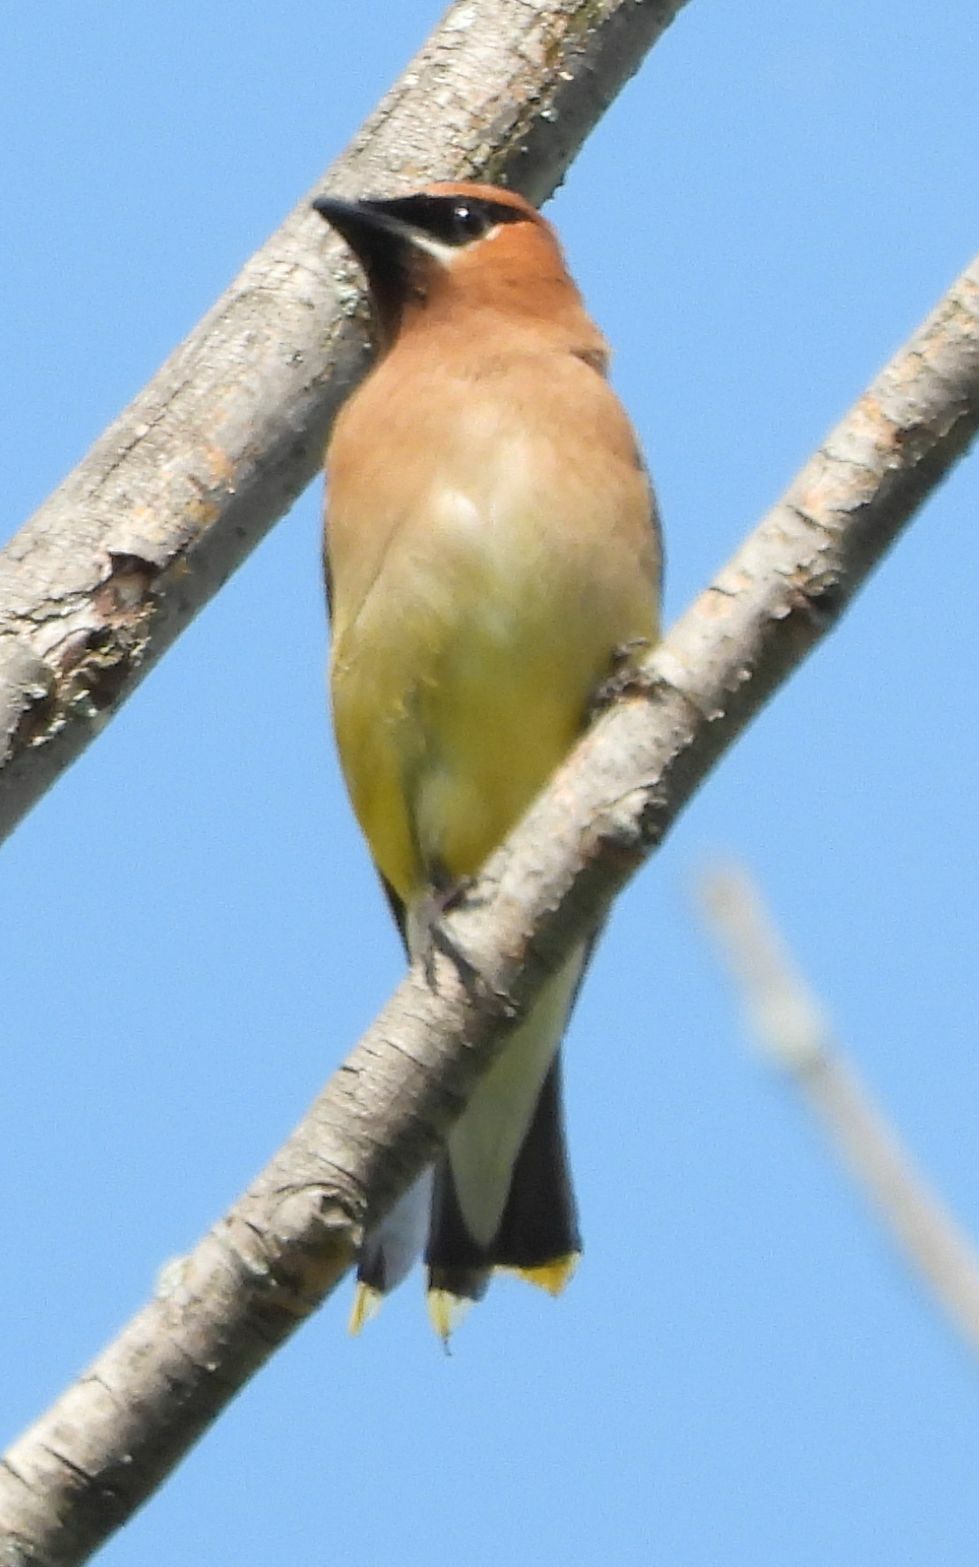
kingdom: Animalia
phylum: Chordata
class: Aves
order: Passeriformes
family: Bombycillidae
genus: Bombycilla
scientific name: Bombycilla cedrorum
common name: Cedar waxwing
